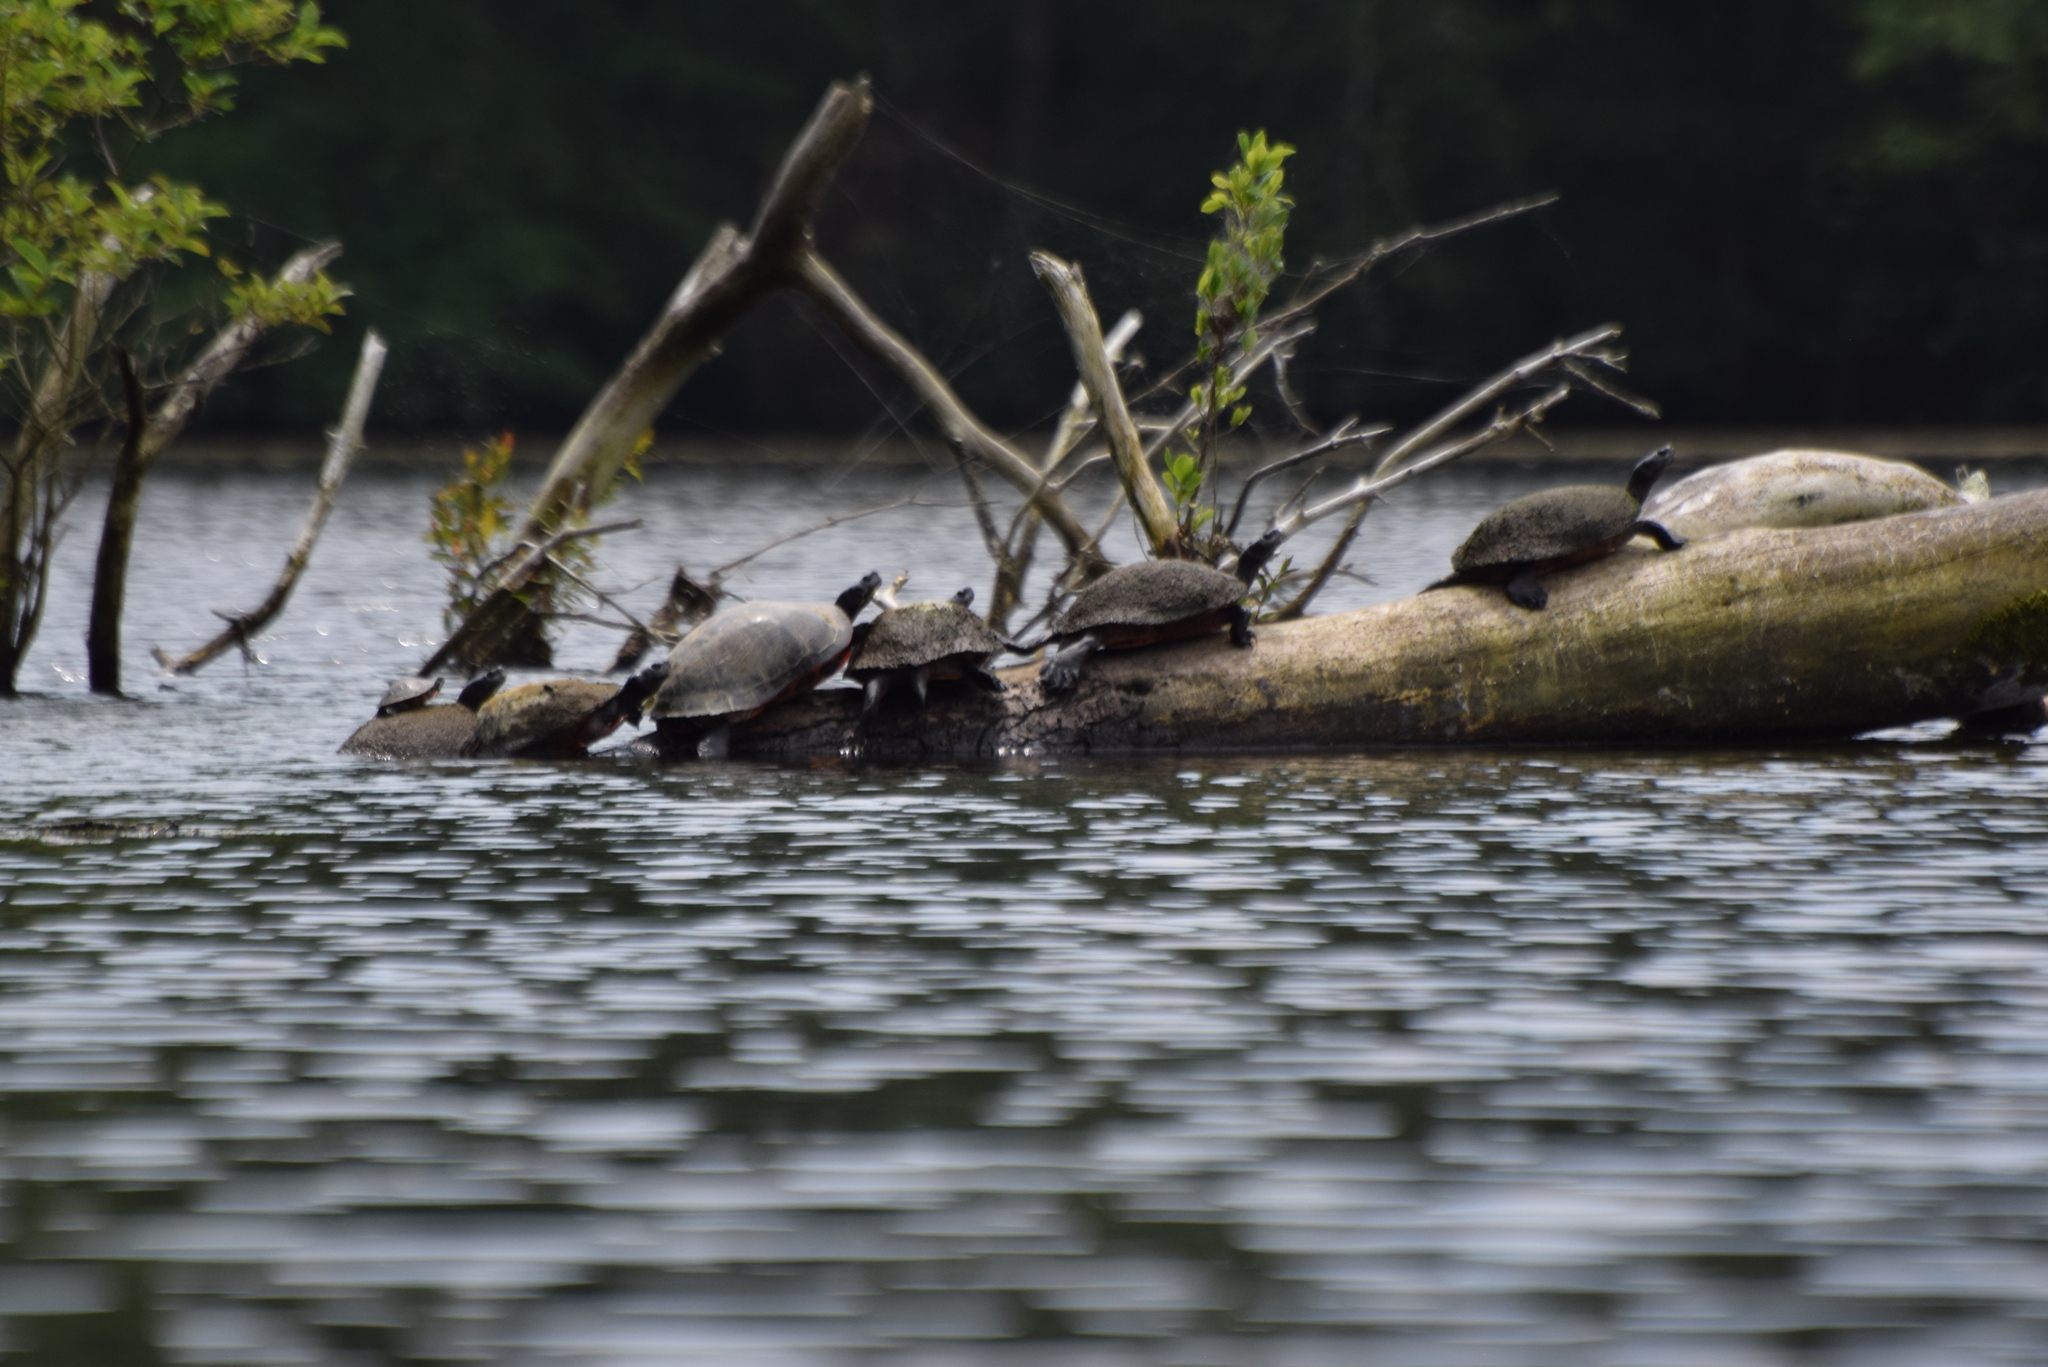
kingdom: Animalia
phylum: Chordata
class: Testudines
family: Emydidae
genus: Pseudemys
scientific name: Pseudemys rubriventris
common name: American red-bellied turtle
